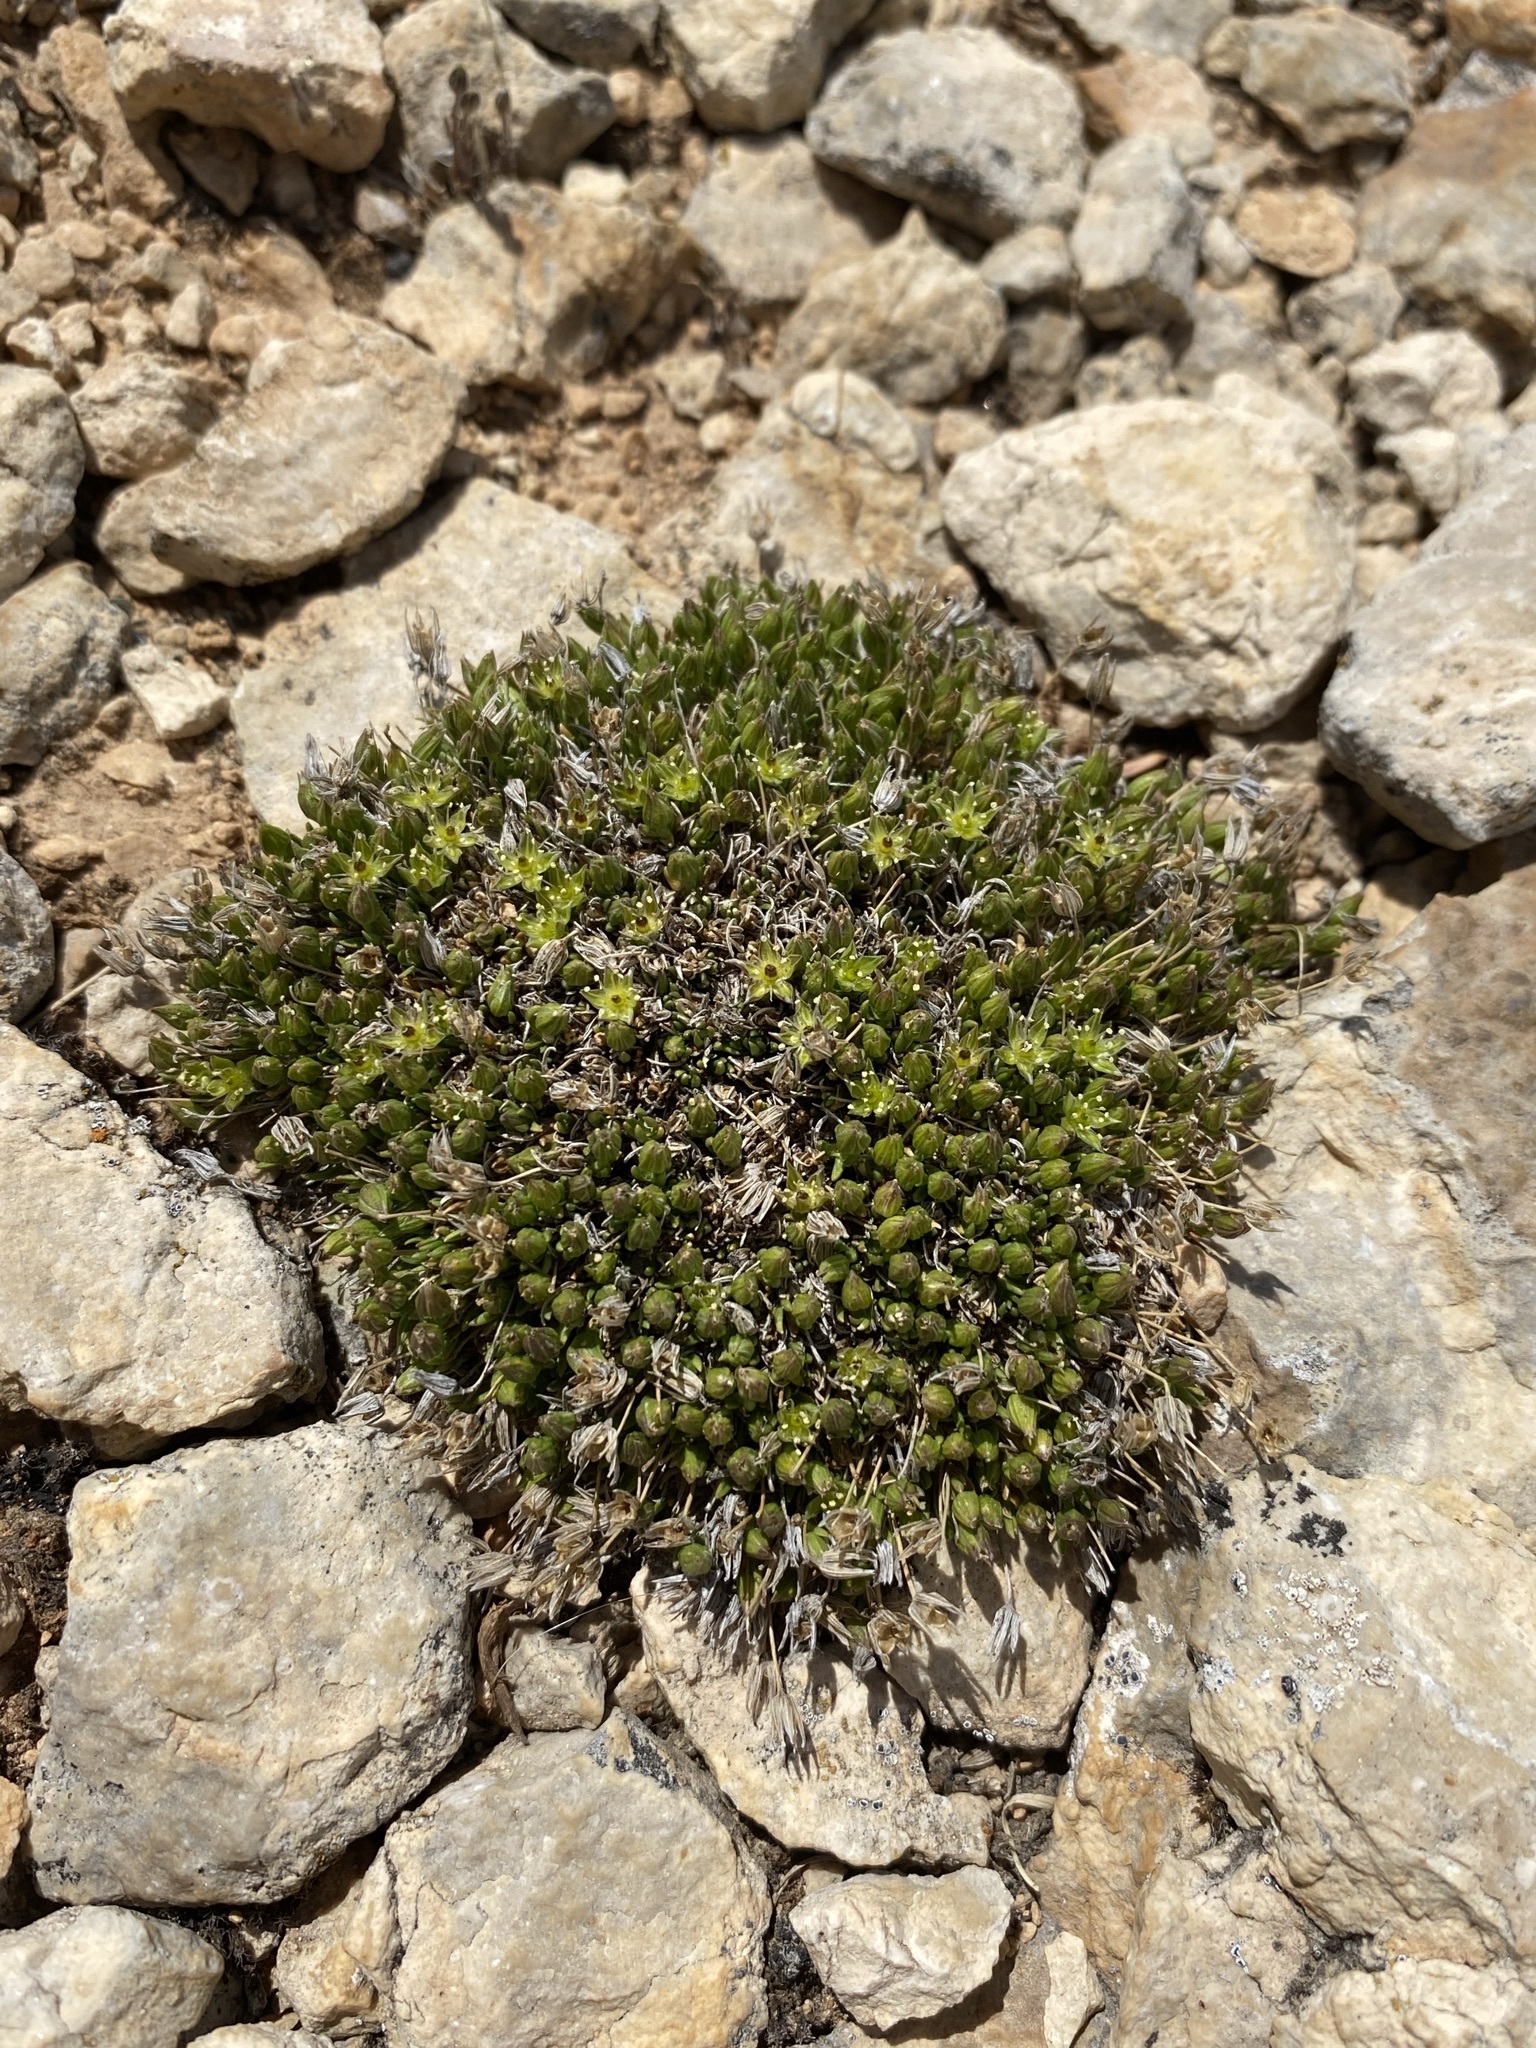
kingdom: Plantae
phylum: Tracheophyta
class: Magnoliopsida
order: Caryophyllales
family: Caryophyllaceae
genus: Sabulina
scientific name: Sabulina austromontana
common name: Columbia stitchwort
